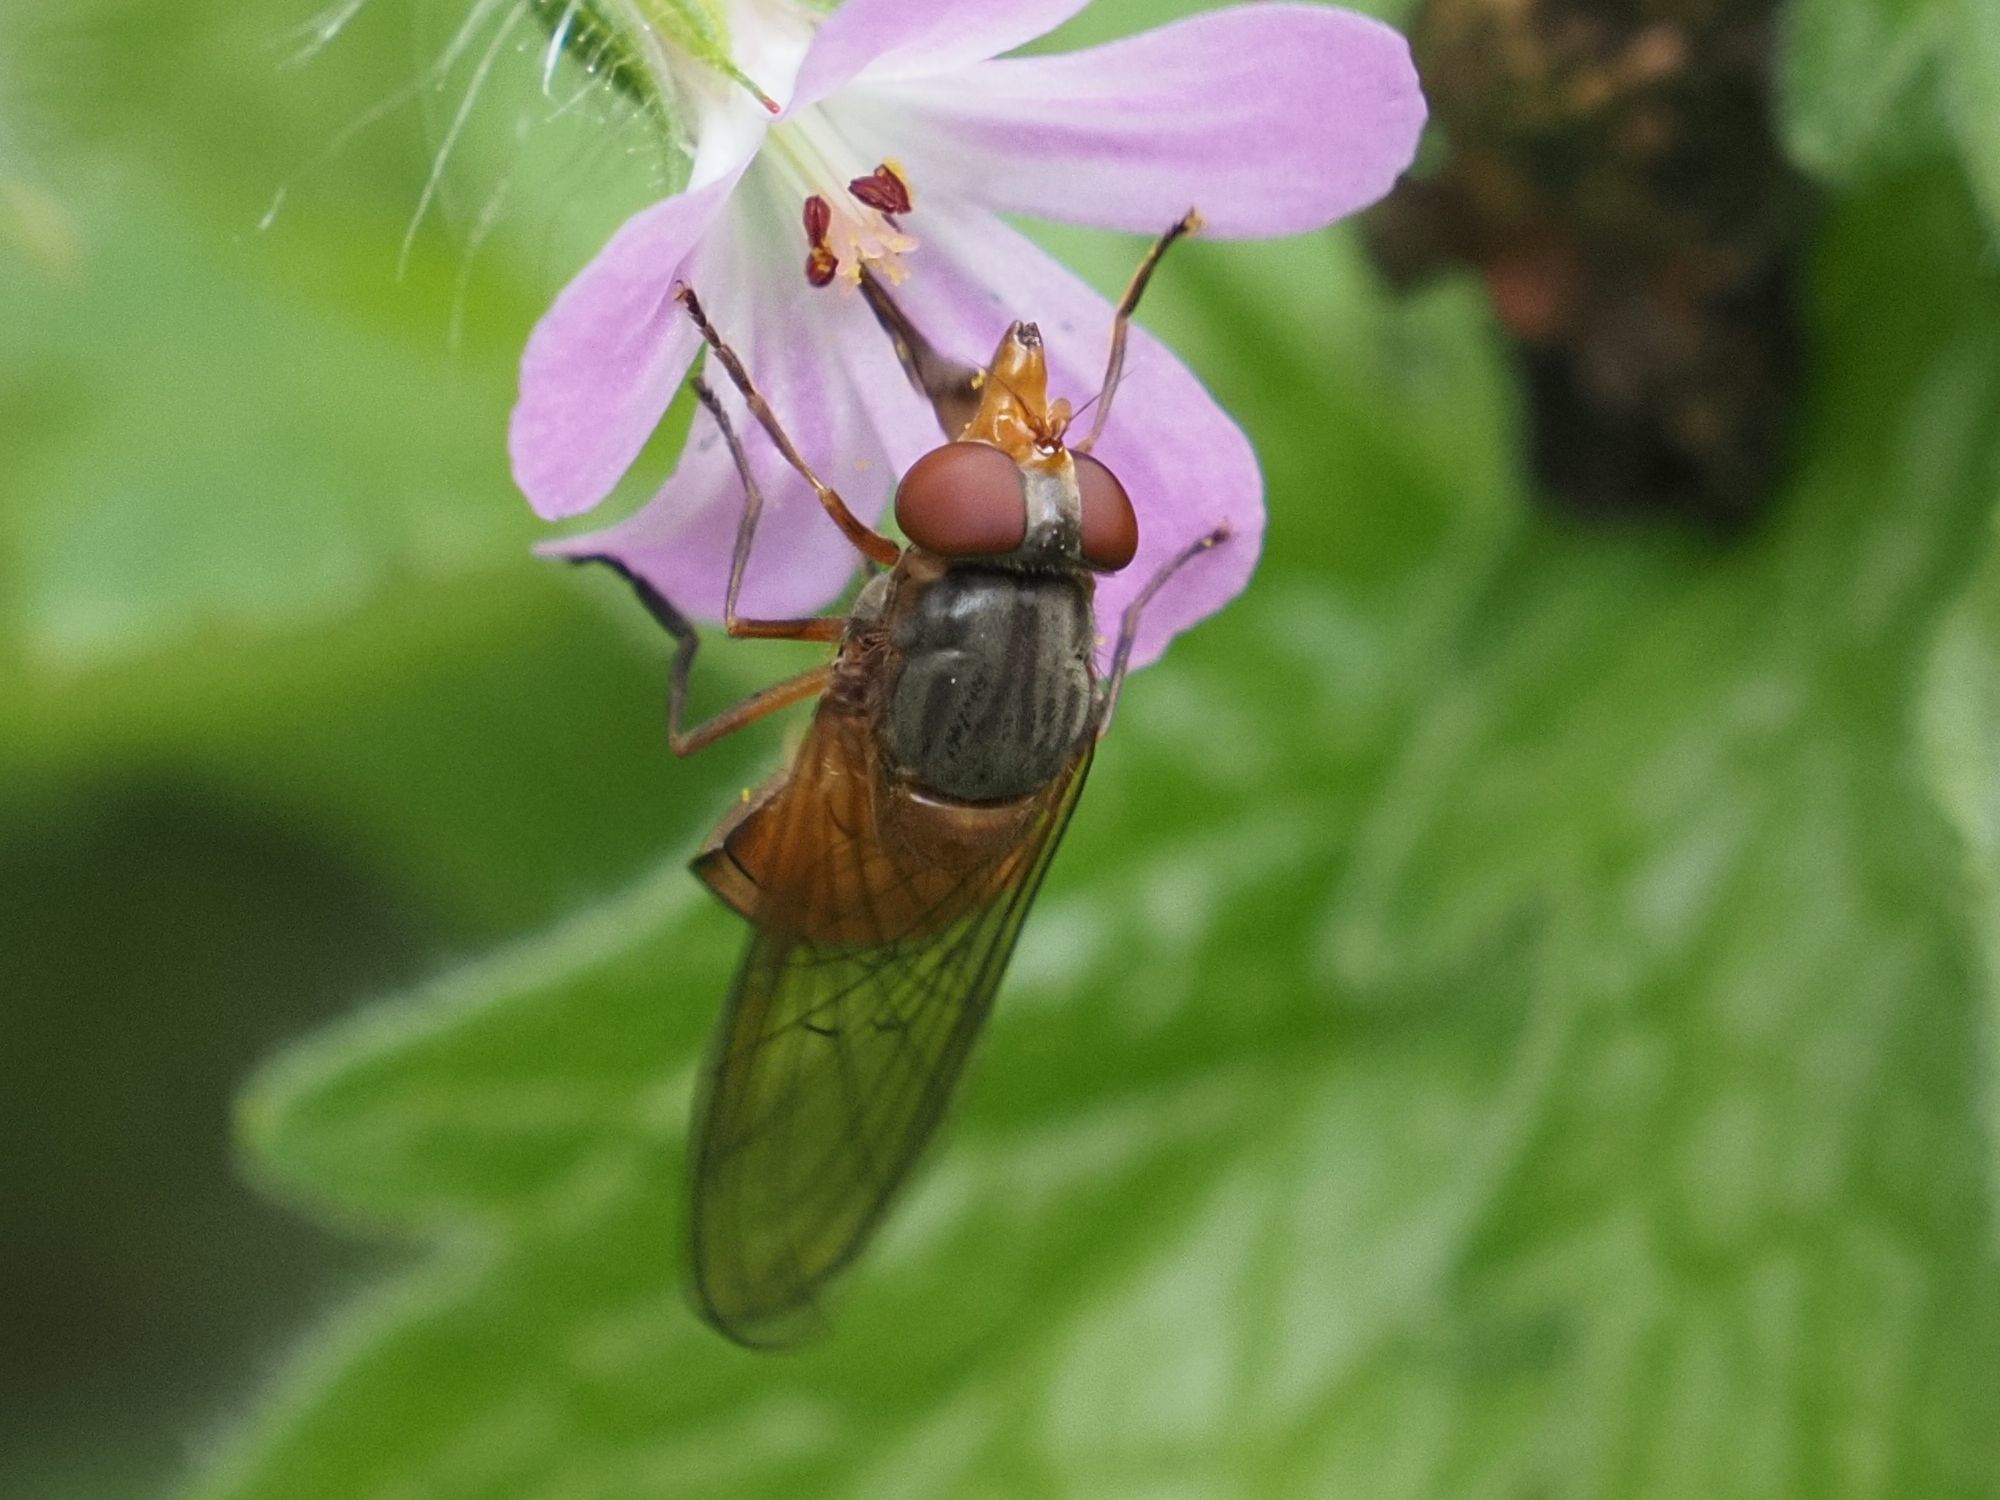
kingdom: Animalia
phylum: Arthropoda
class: Insecta
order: Diptera
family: Syrphidae
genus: Rhingia
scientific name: Rhingia campestris
